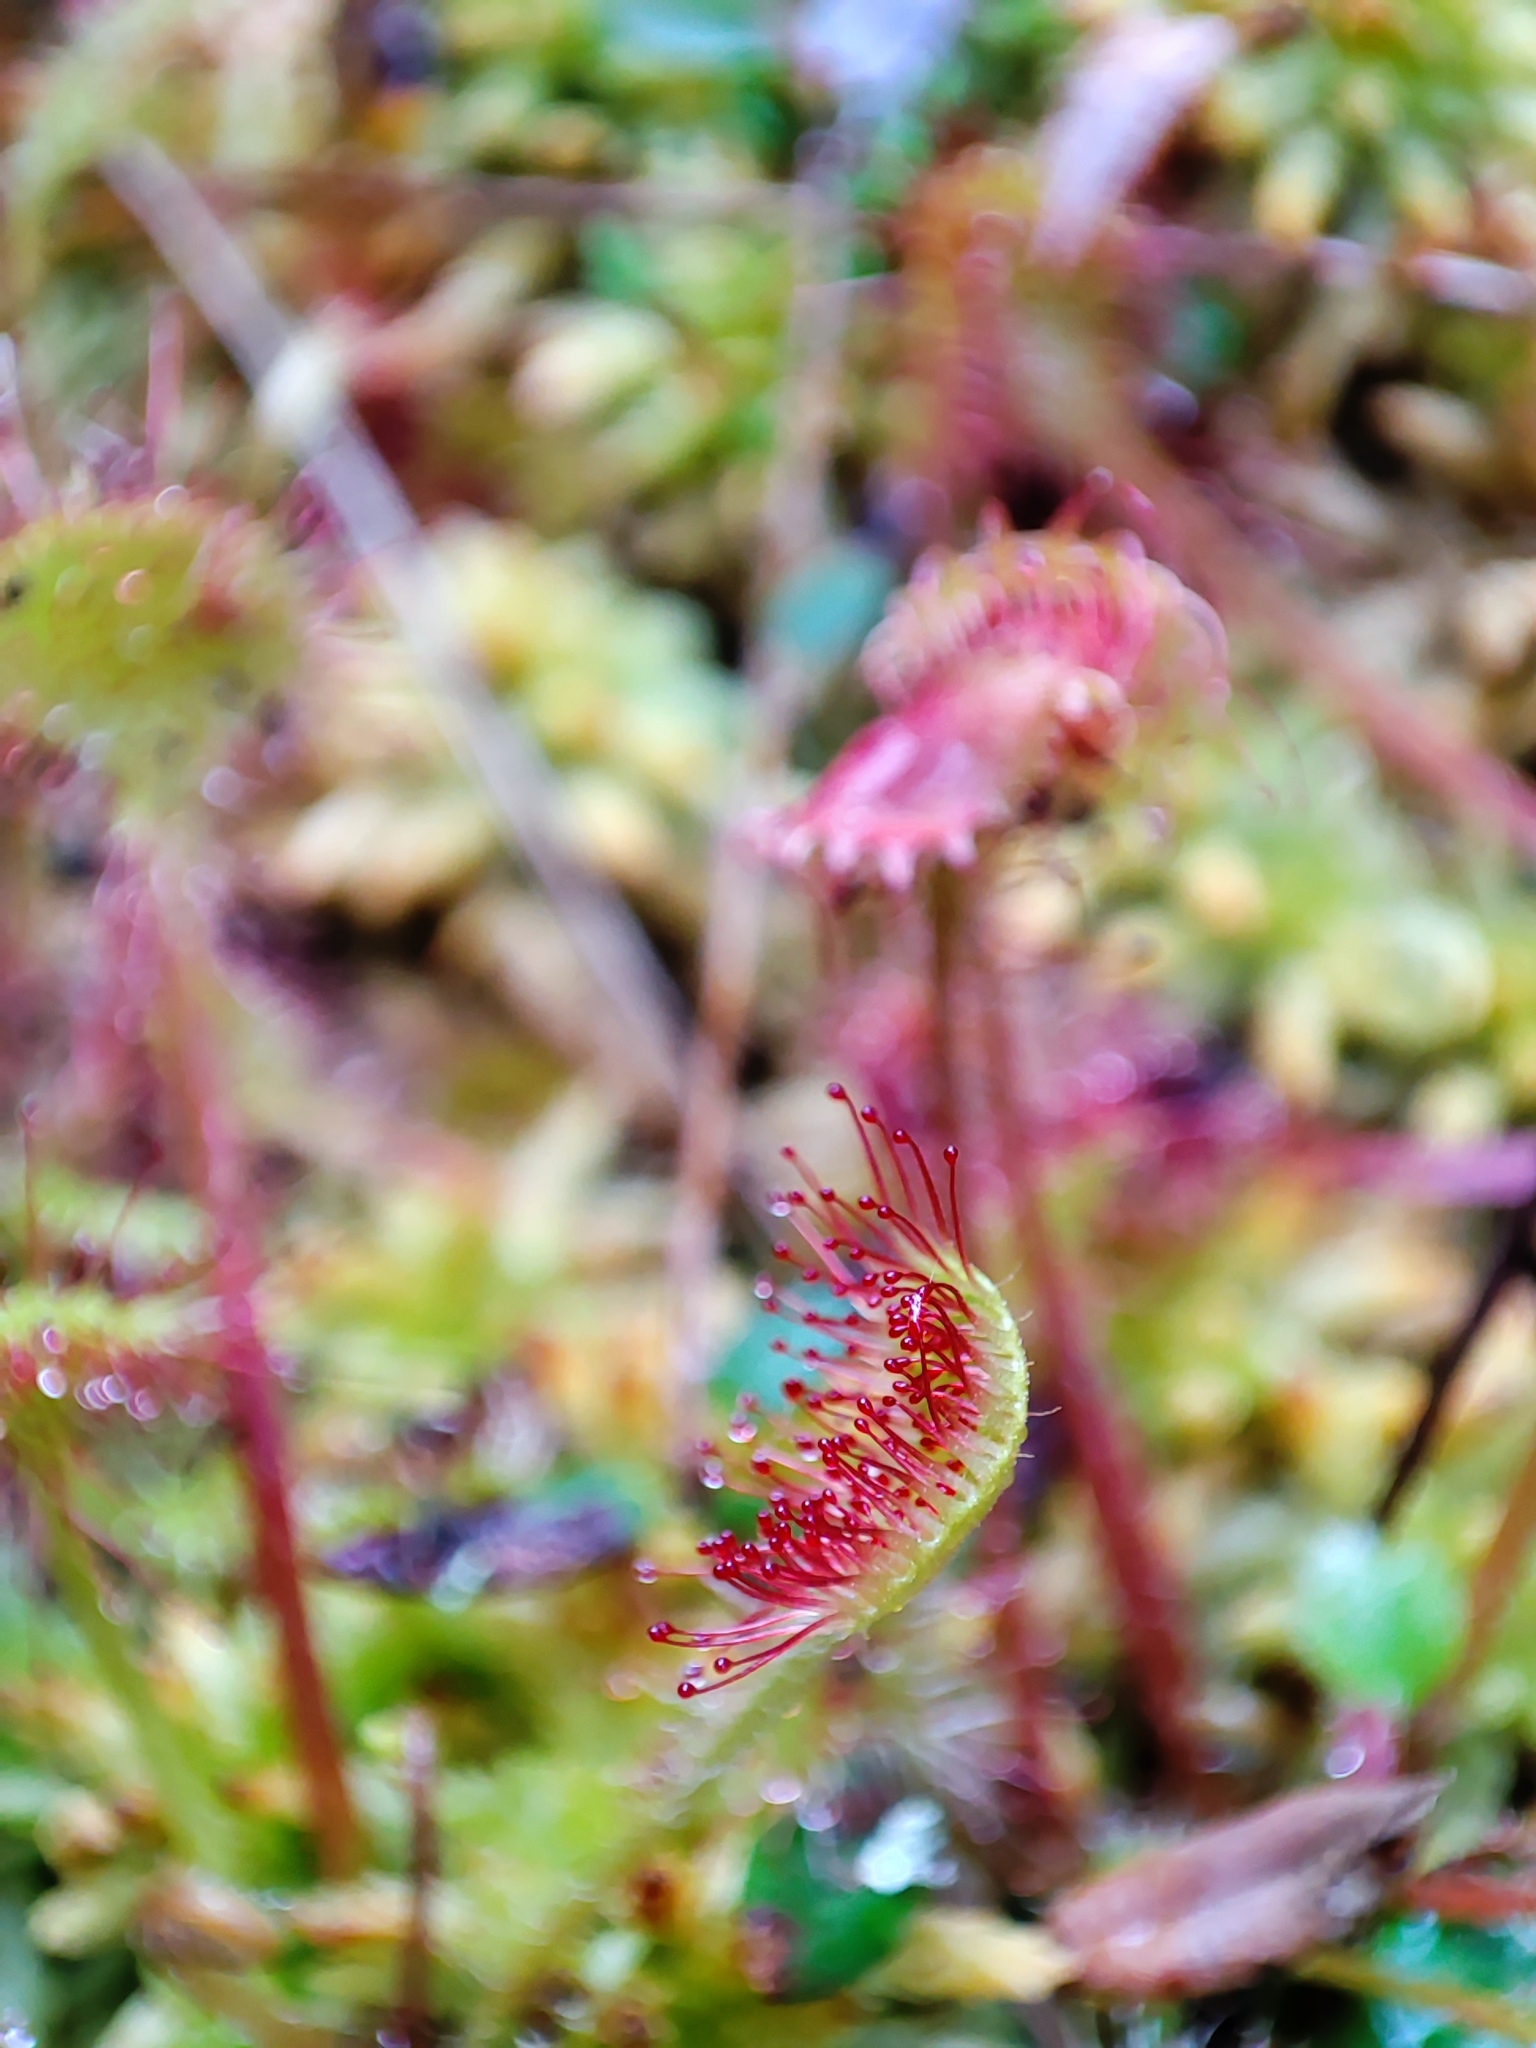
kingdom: Plantae
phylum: Tracheophyta
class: Magnoliopsida
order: Caryophyllales
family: Droseraceae
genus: Drosera
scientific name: Drosera rotundifolia
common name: Round-leaved sundew
